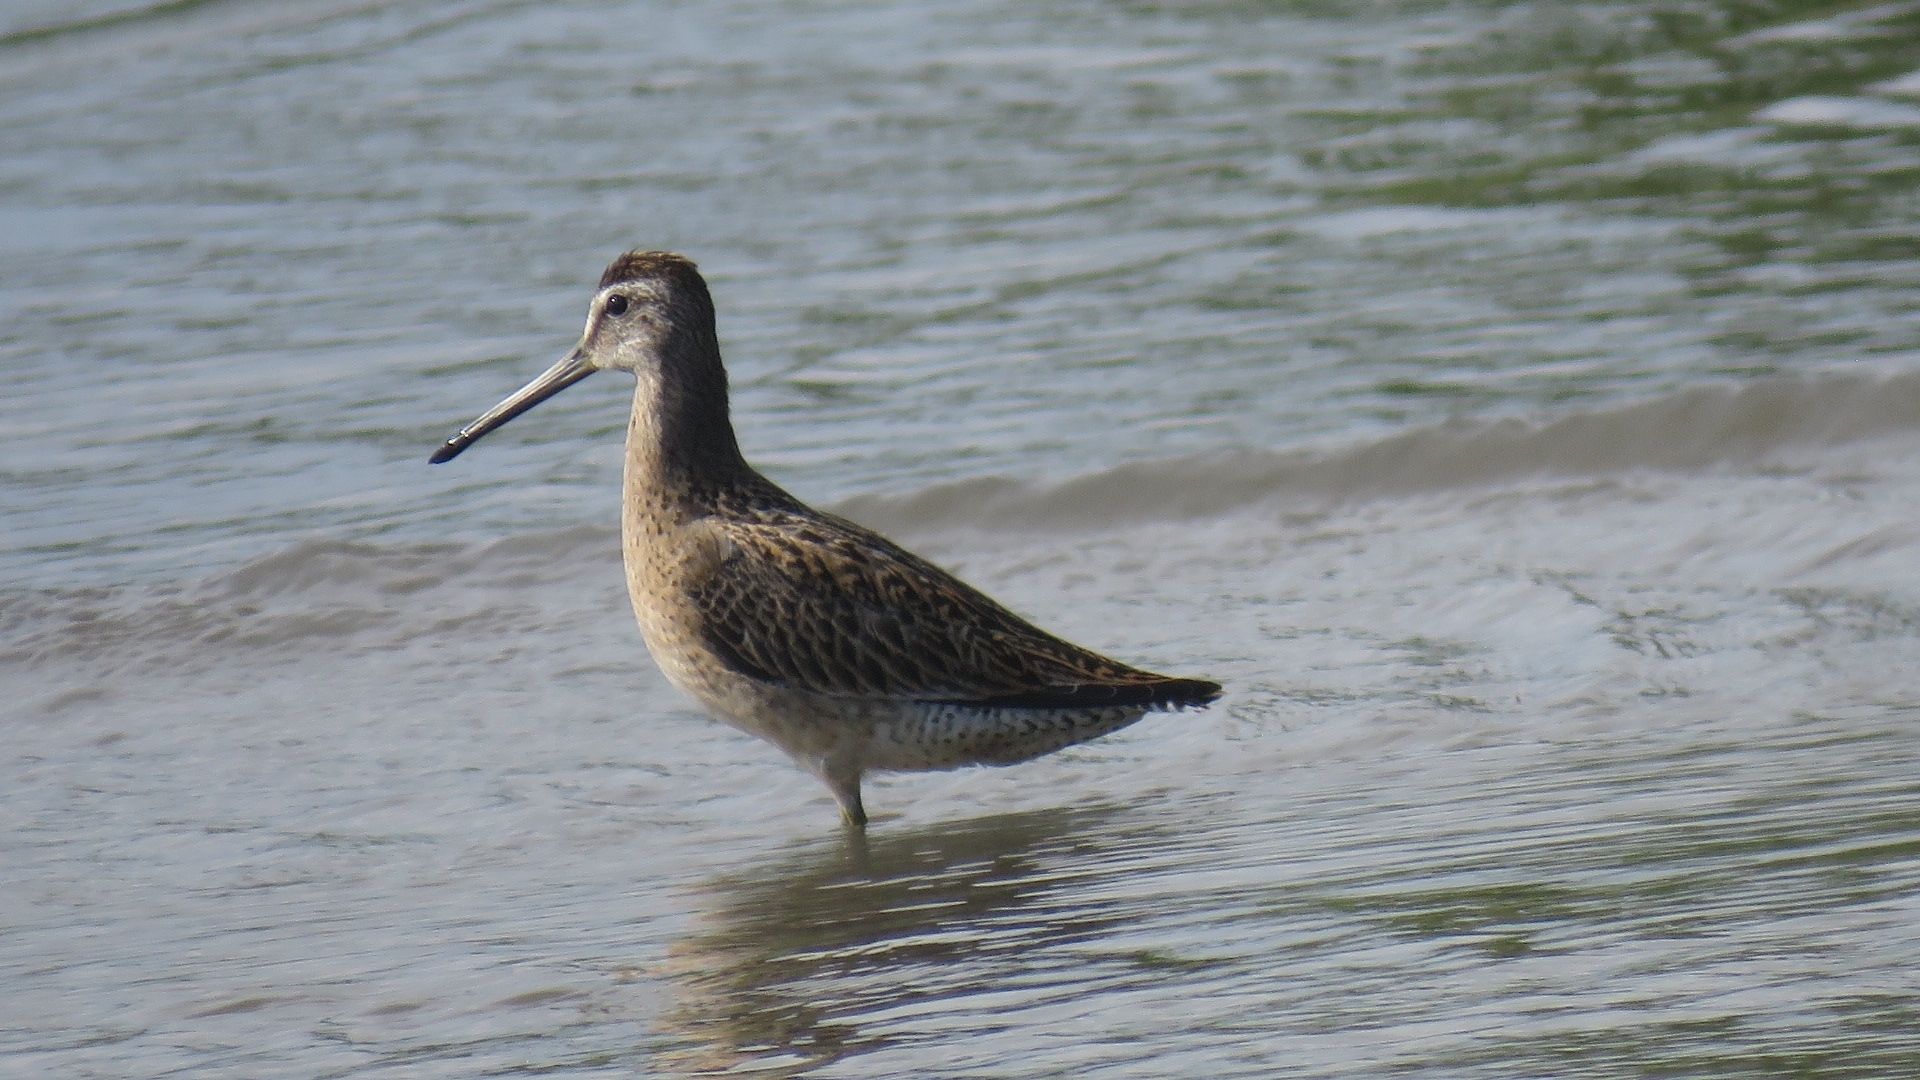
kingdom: Animalia
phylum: Chordata
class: Aves
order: Charadriiformes
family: Scolopacidae
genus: Limnodromus
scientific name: Limnodromus griseus
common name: Short-billed dowitcher
